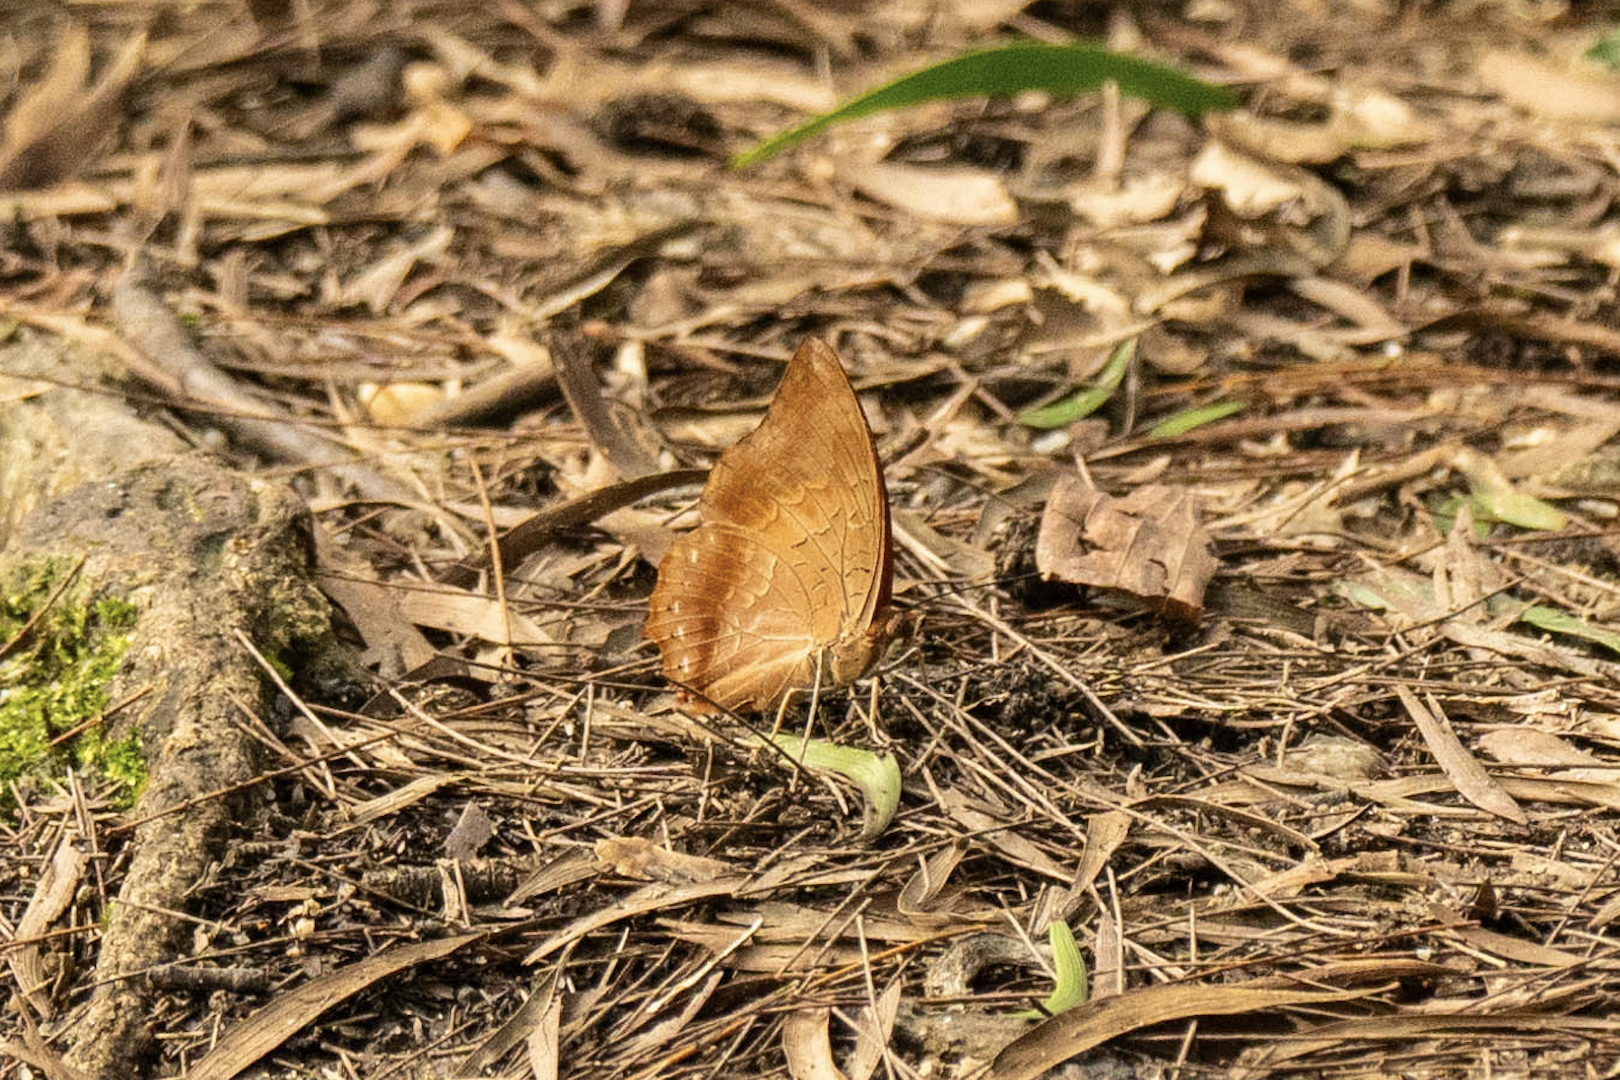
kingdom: Animalia
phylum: Arthropoda
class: Insecta
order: Lepidoptera
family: Nymphalidae
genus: Charaxes
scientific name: Charaxes bernardus
